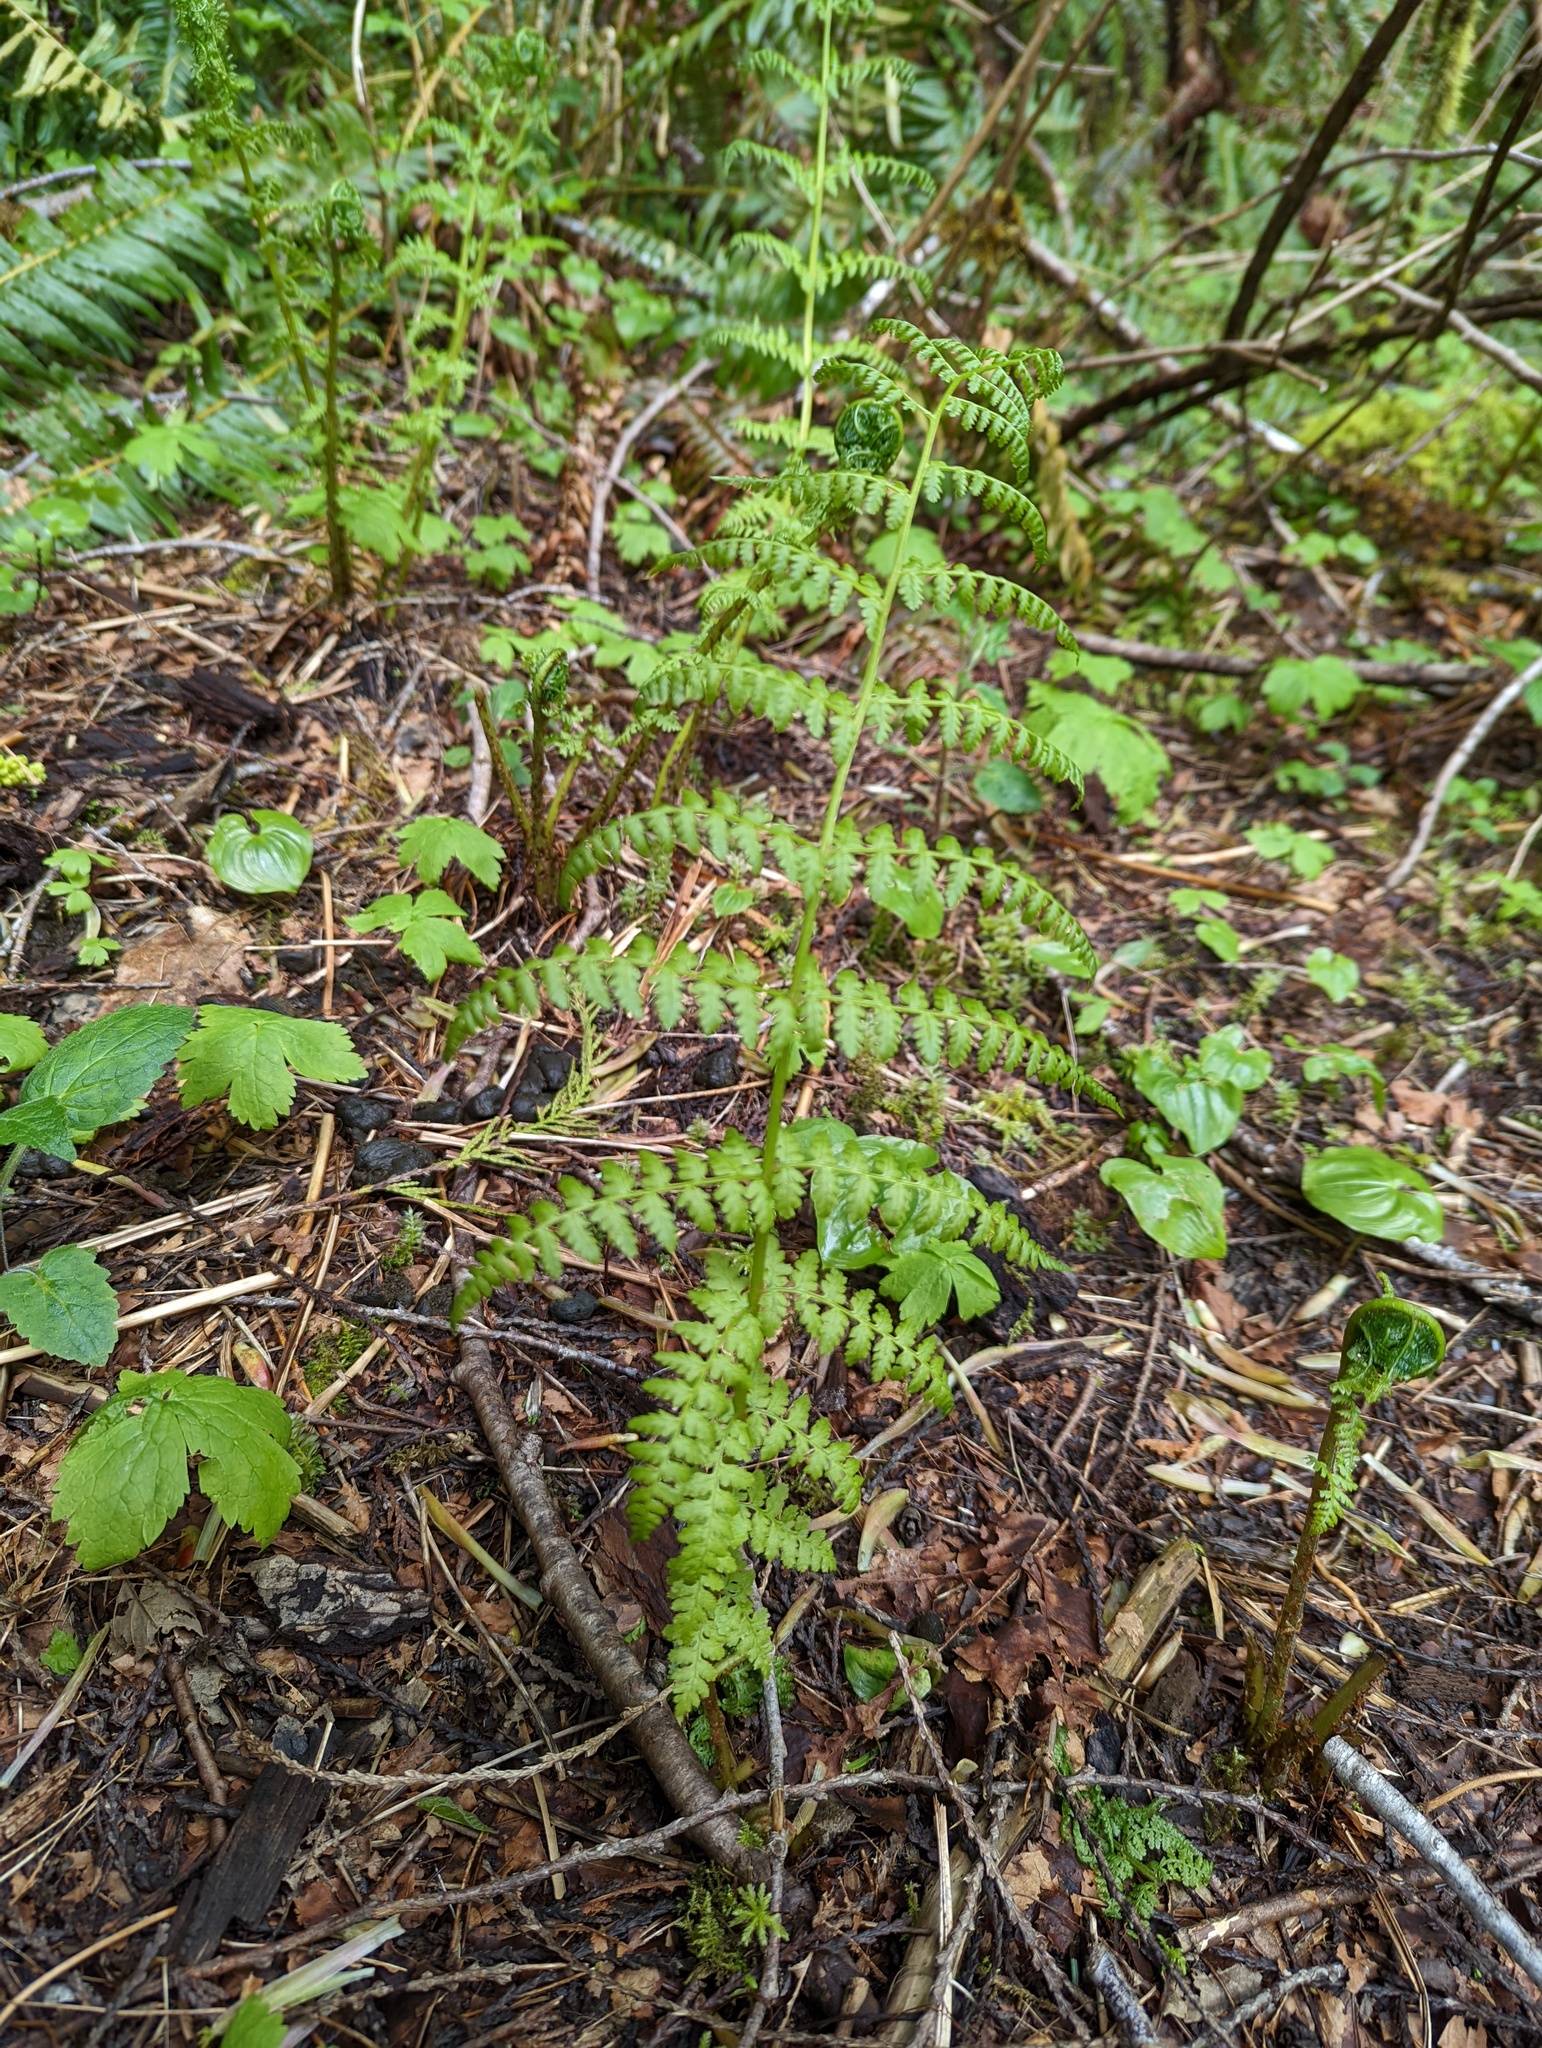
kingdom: Plantae
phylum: Tracheophyta
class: Polypodiopsida
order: Polypodiales
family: Athyriaceae
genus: Athyrium
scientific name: Athyrium filix-femina
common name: Lady fern
